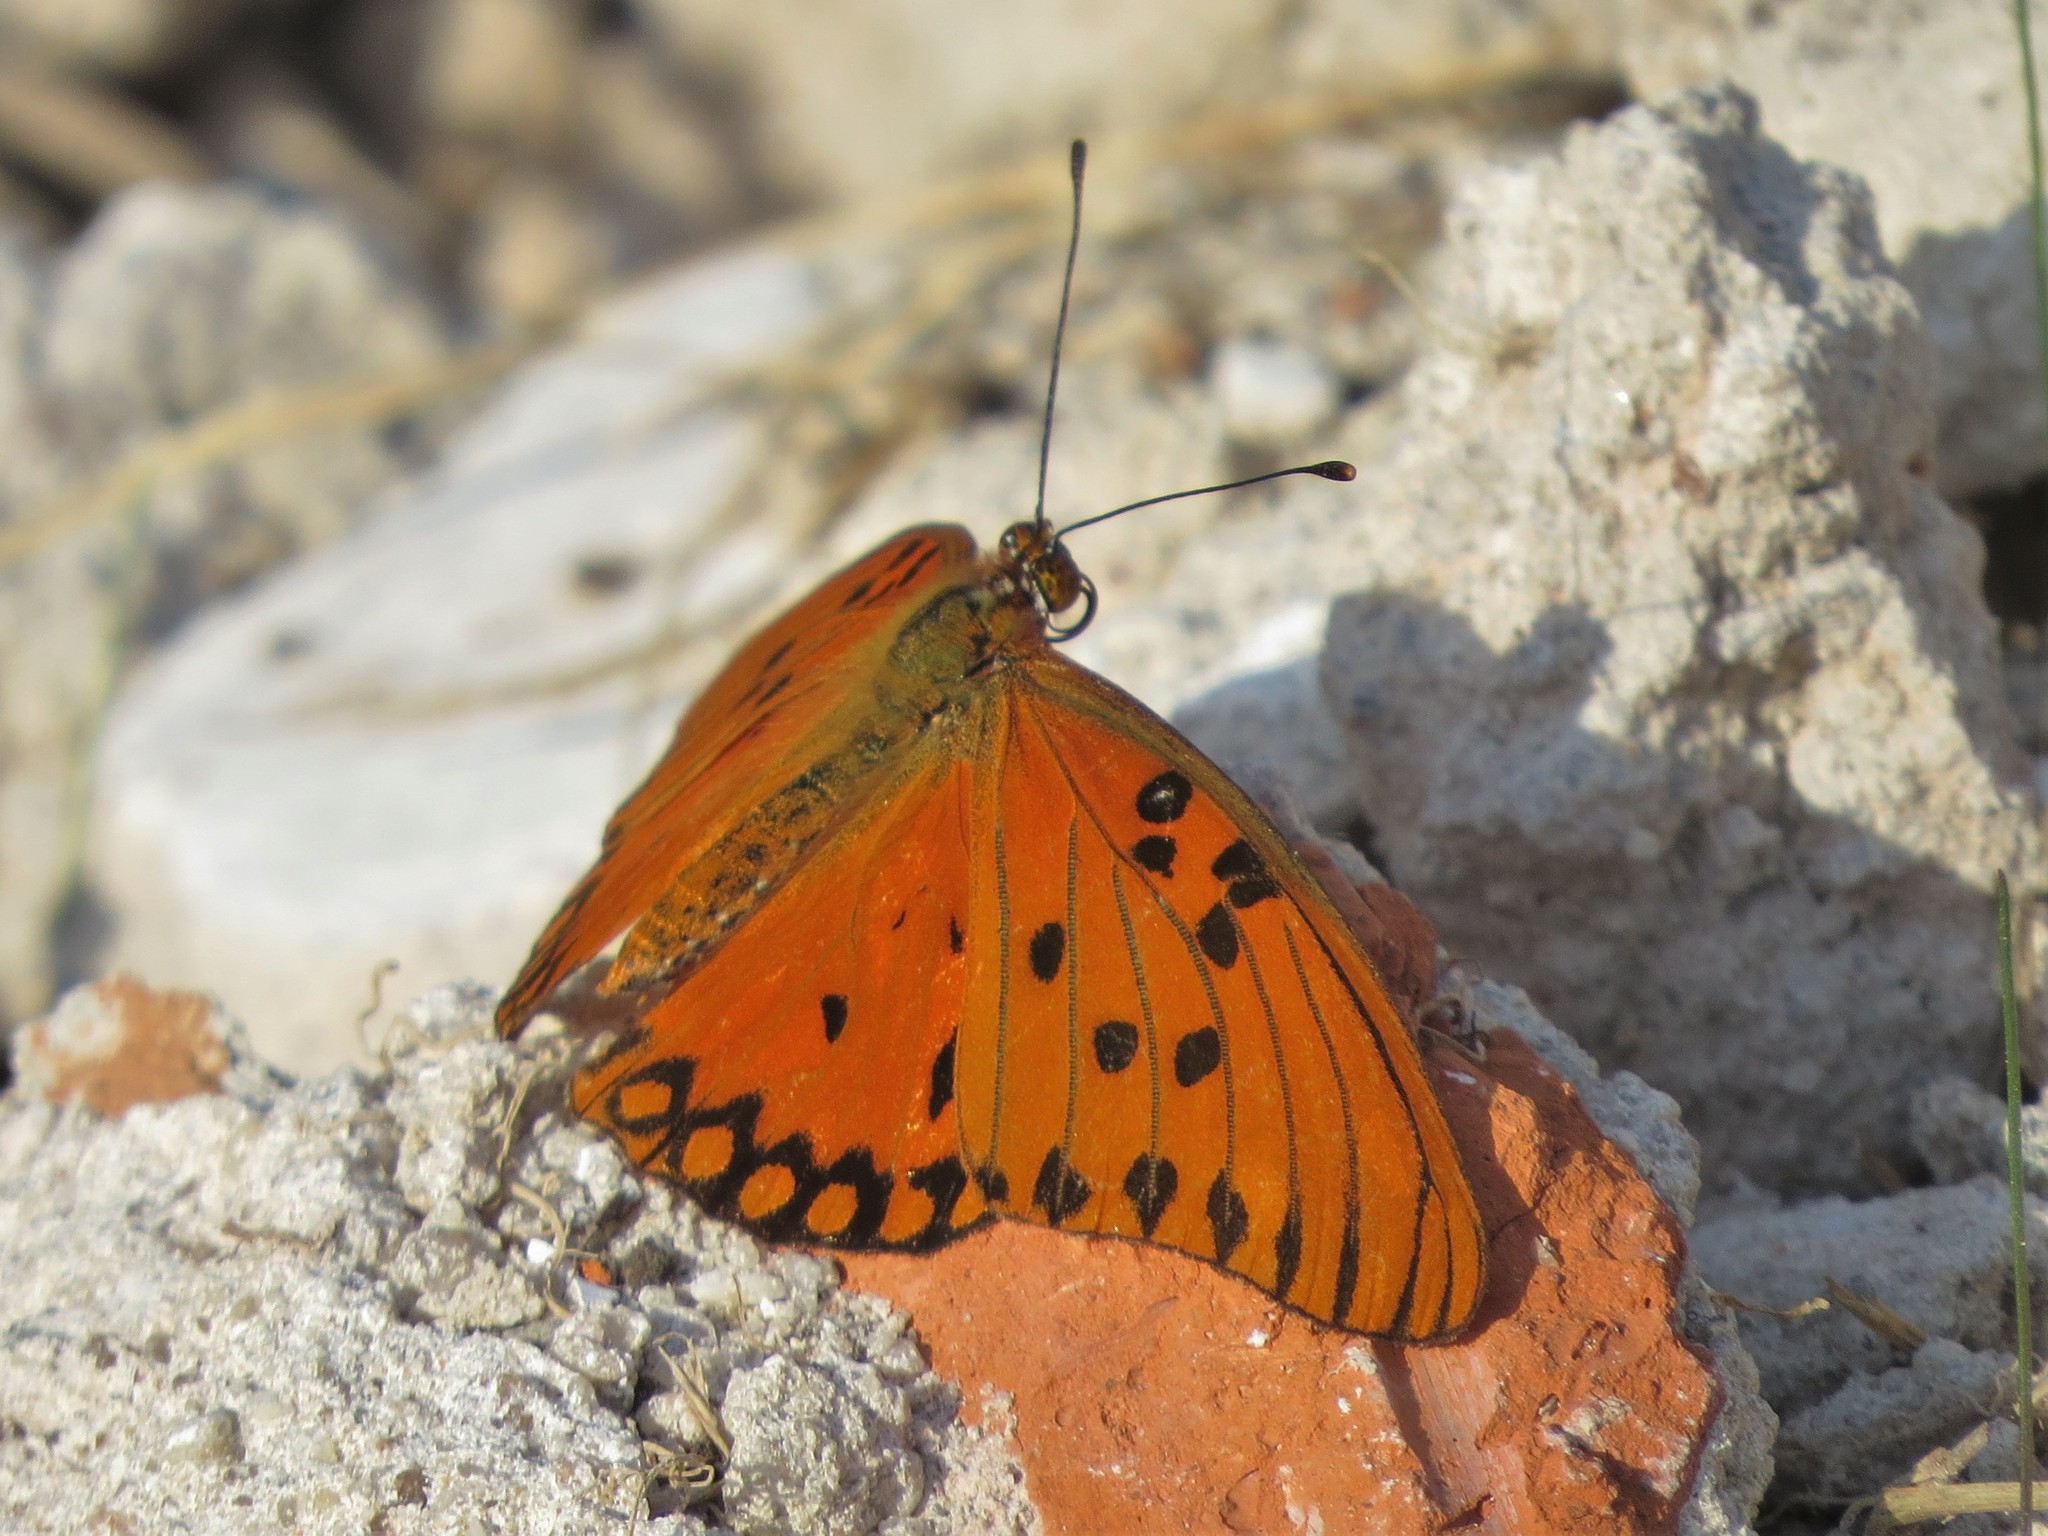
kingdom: Animalia
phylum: Arthropoda
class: Insecta
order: Lepidoptera
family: Nymphalidae
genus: Dione
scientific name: Dione vanillae
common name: Gulf fritillary
